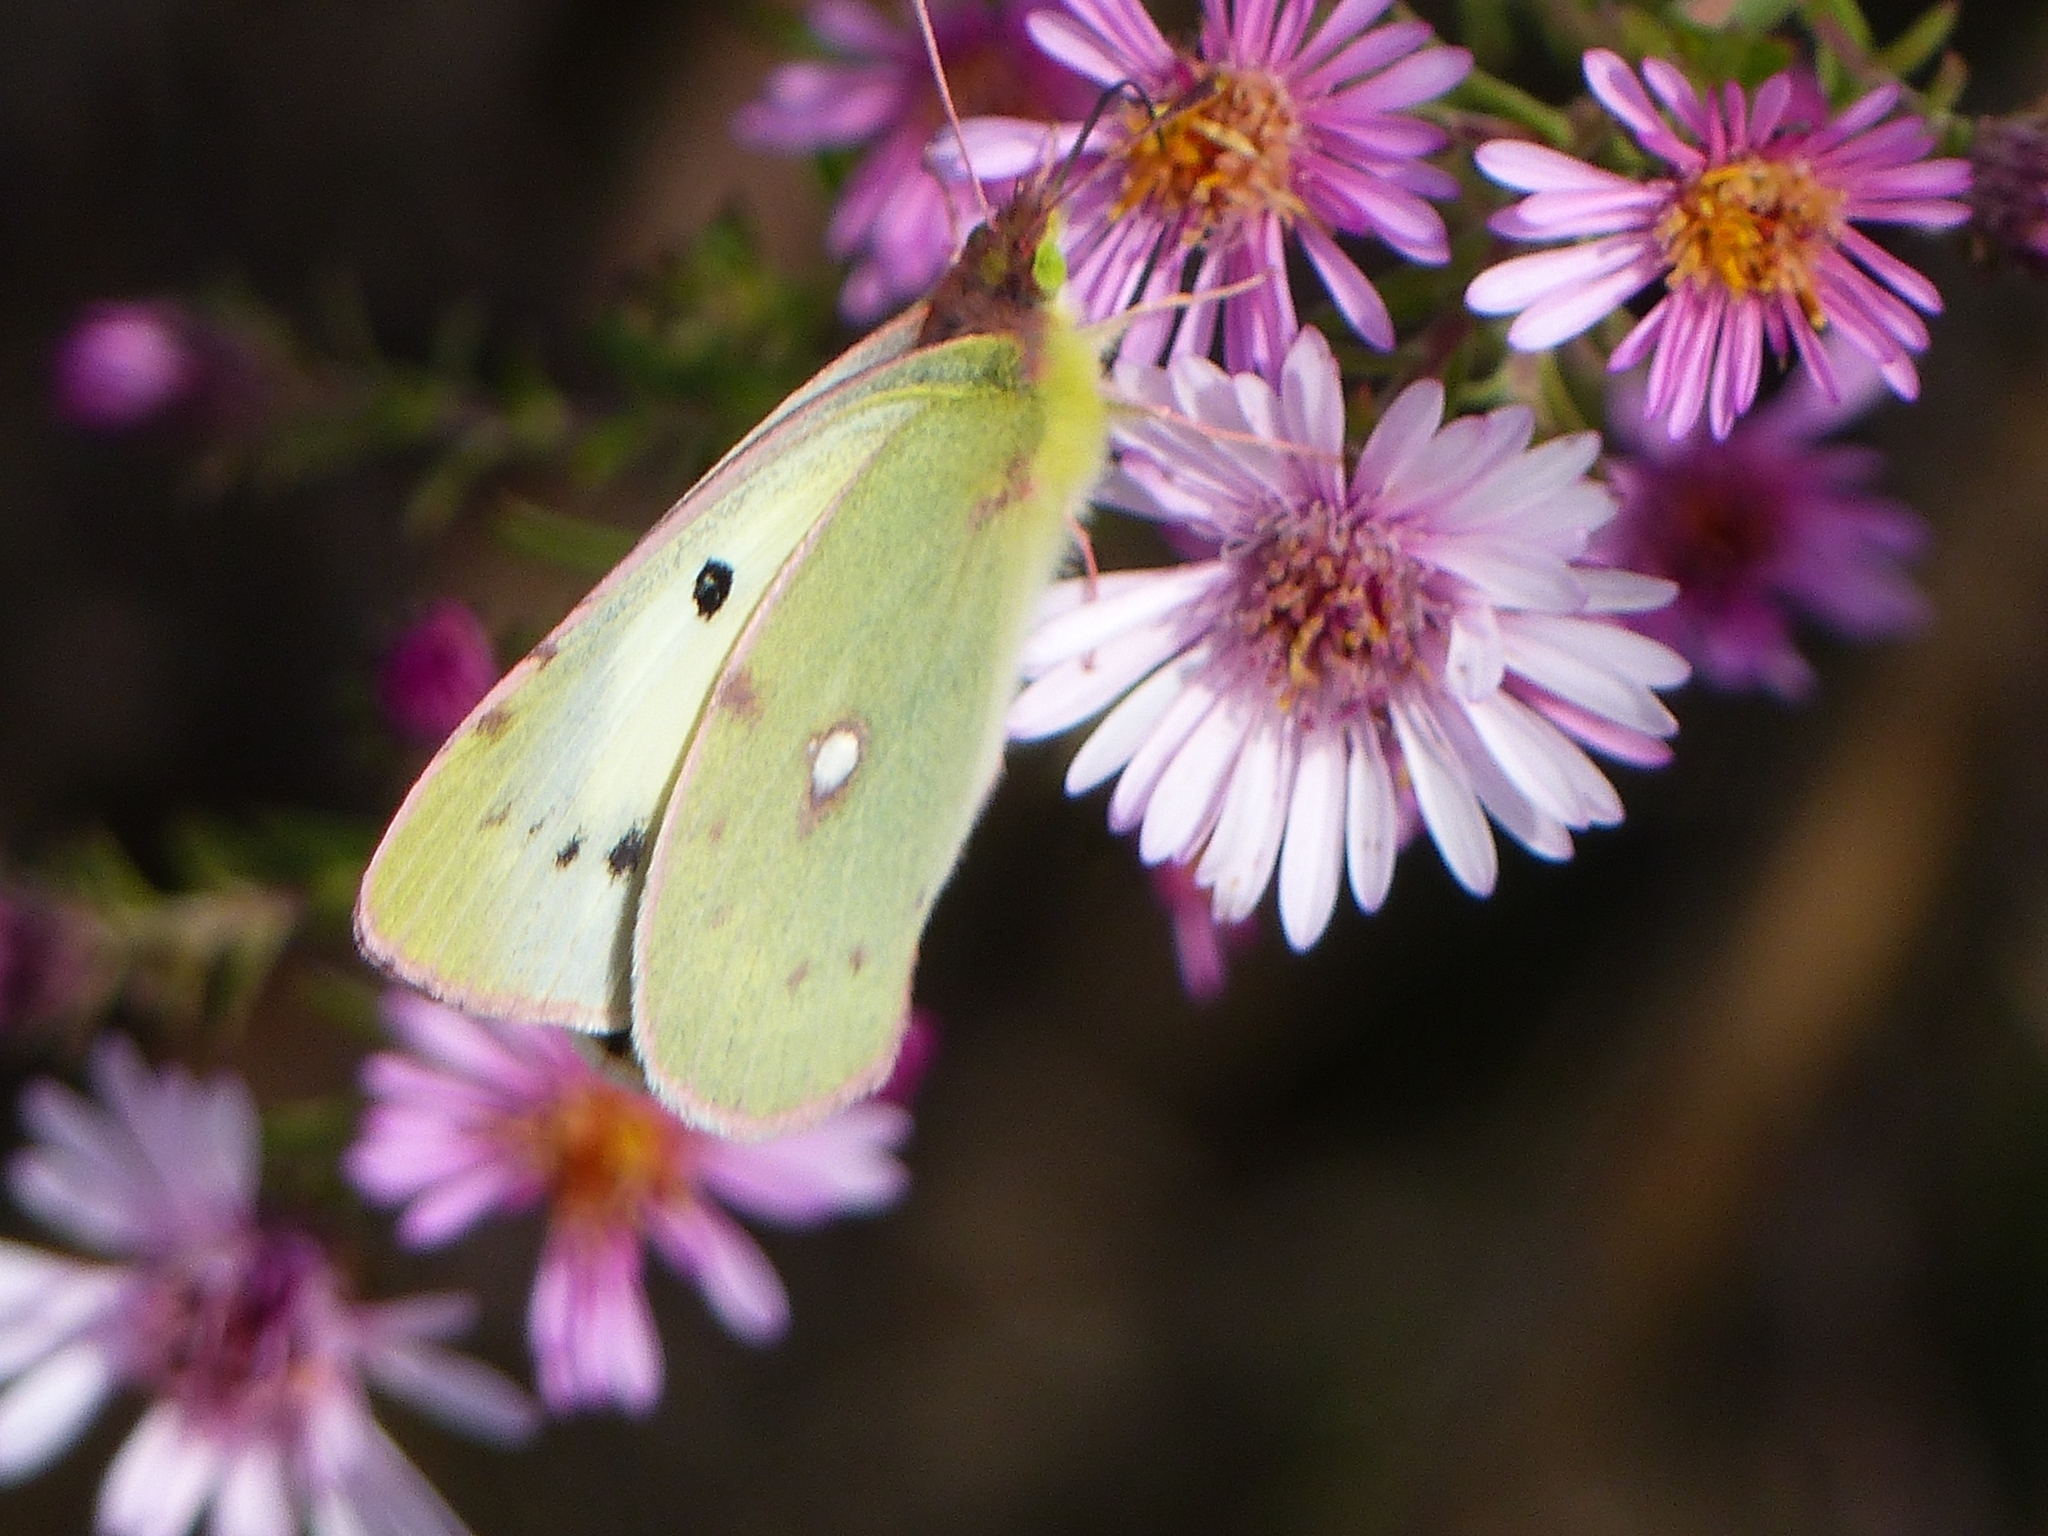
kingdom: Animalia
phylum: Arthropoda
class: Insecta
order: Lepidoptera
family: Pieridae
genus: Colias
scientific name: Colias erate
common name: Eastern pale clouded yellow
